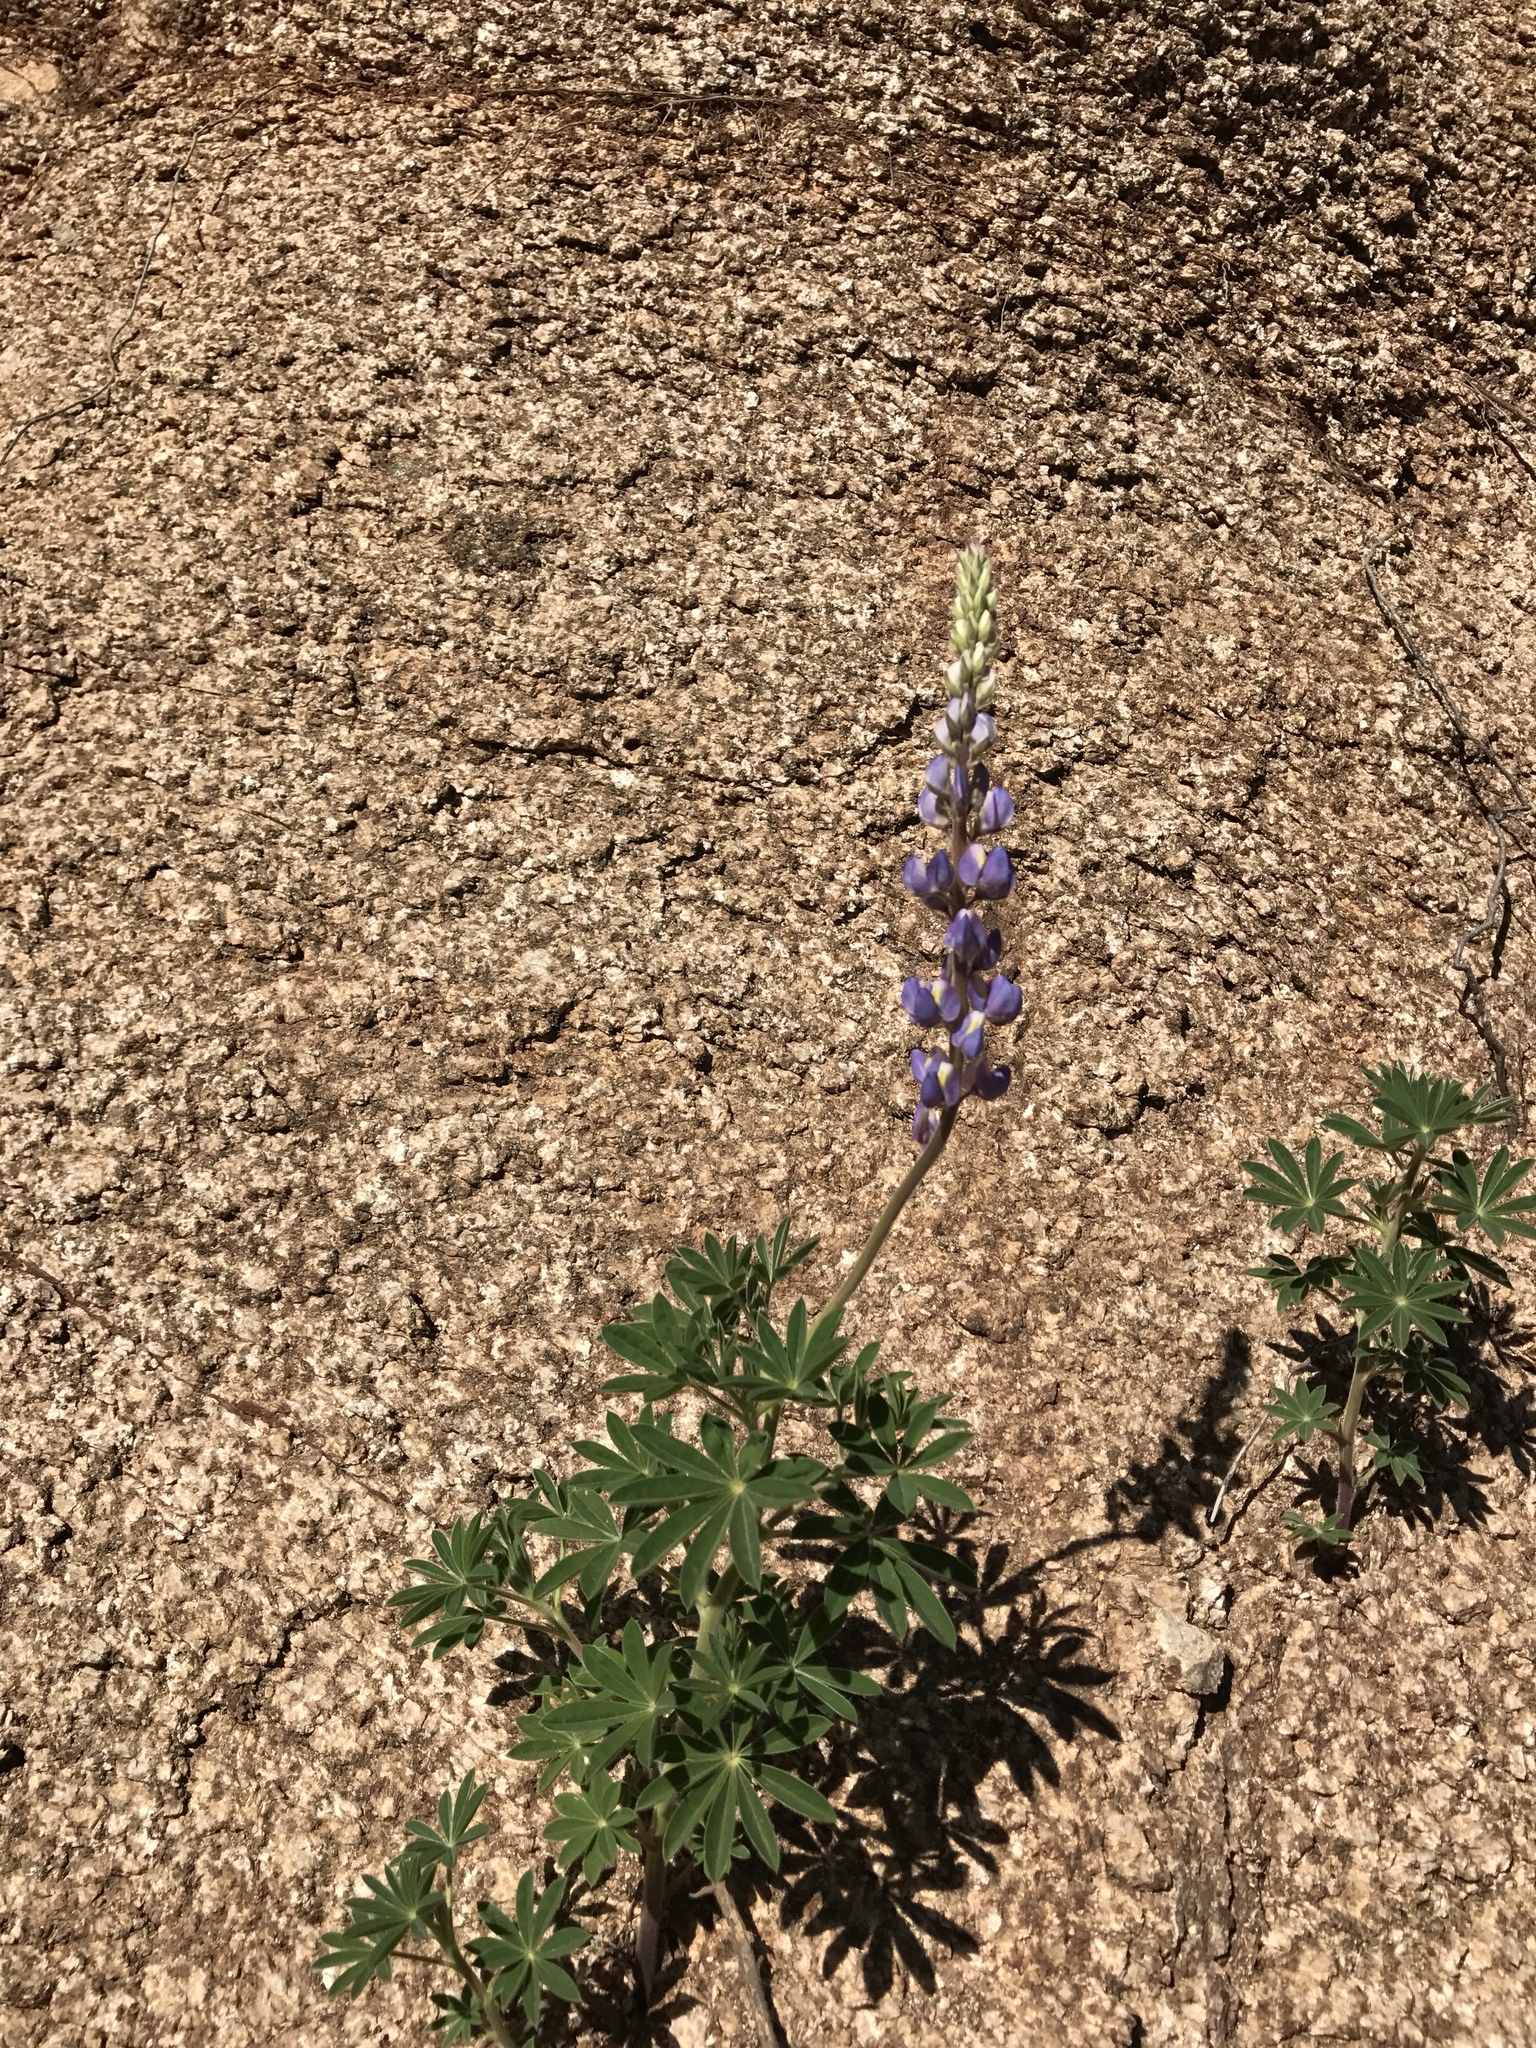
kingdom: Plantae
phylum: Tracheophyta
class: Magnoliopsida
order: Fabales
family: Fabaceae
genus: Lupinus
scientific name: Lupinus neomexicanus
